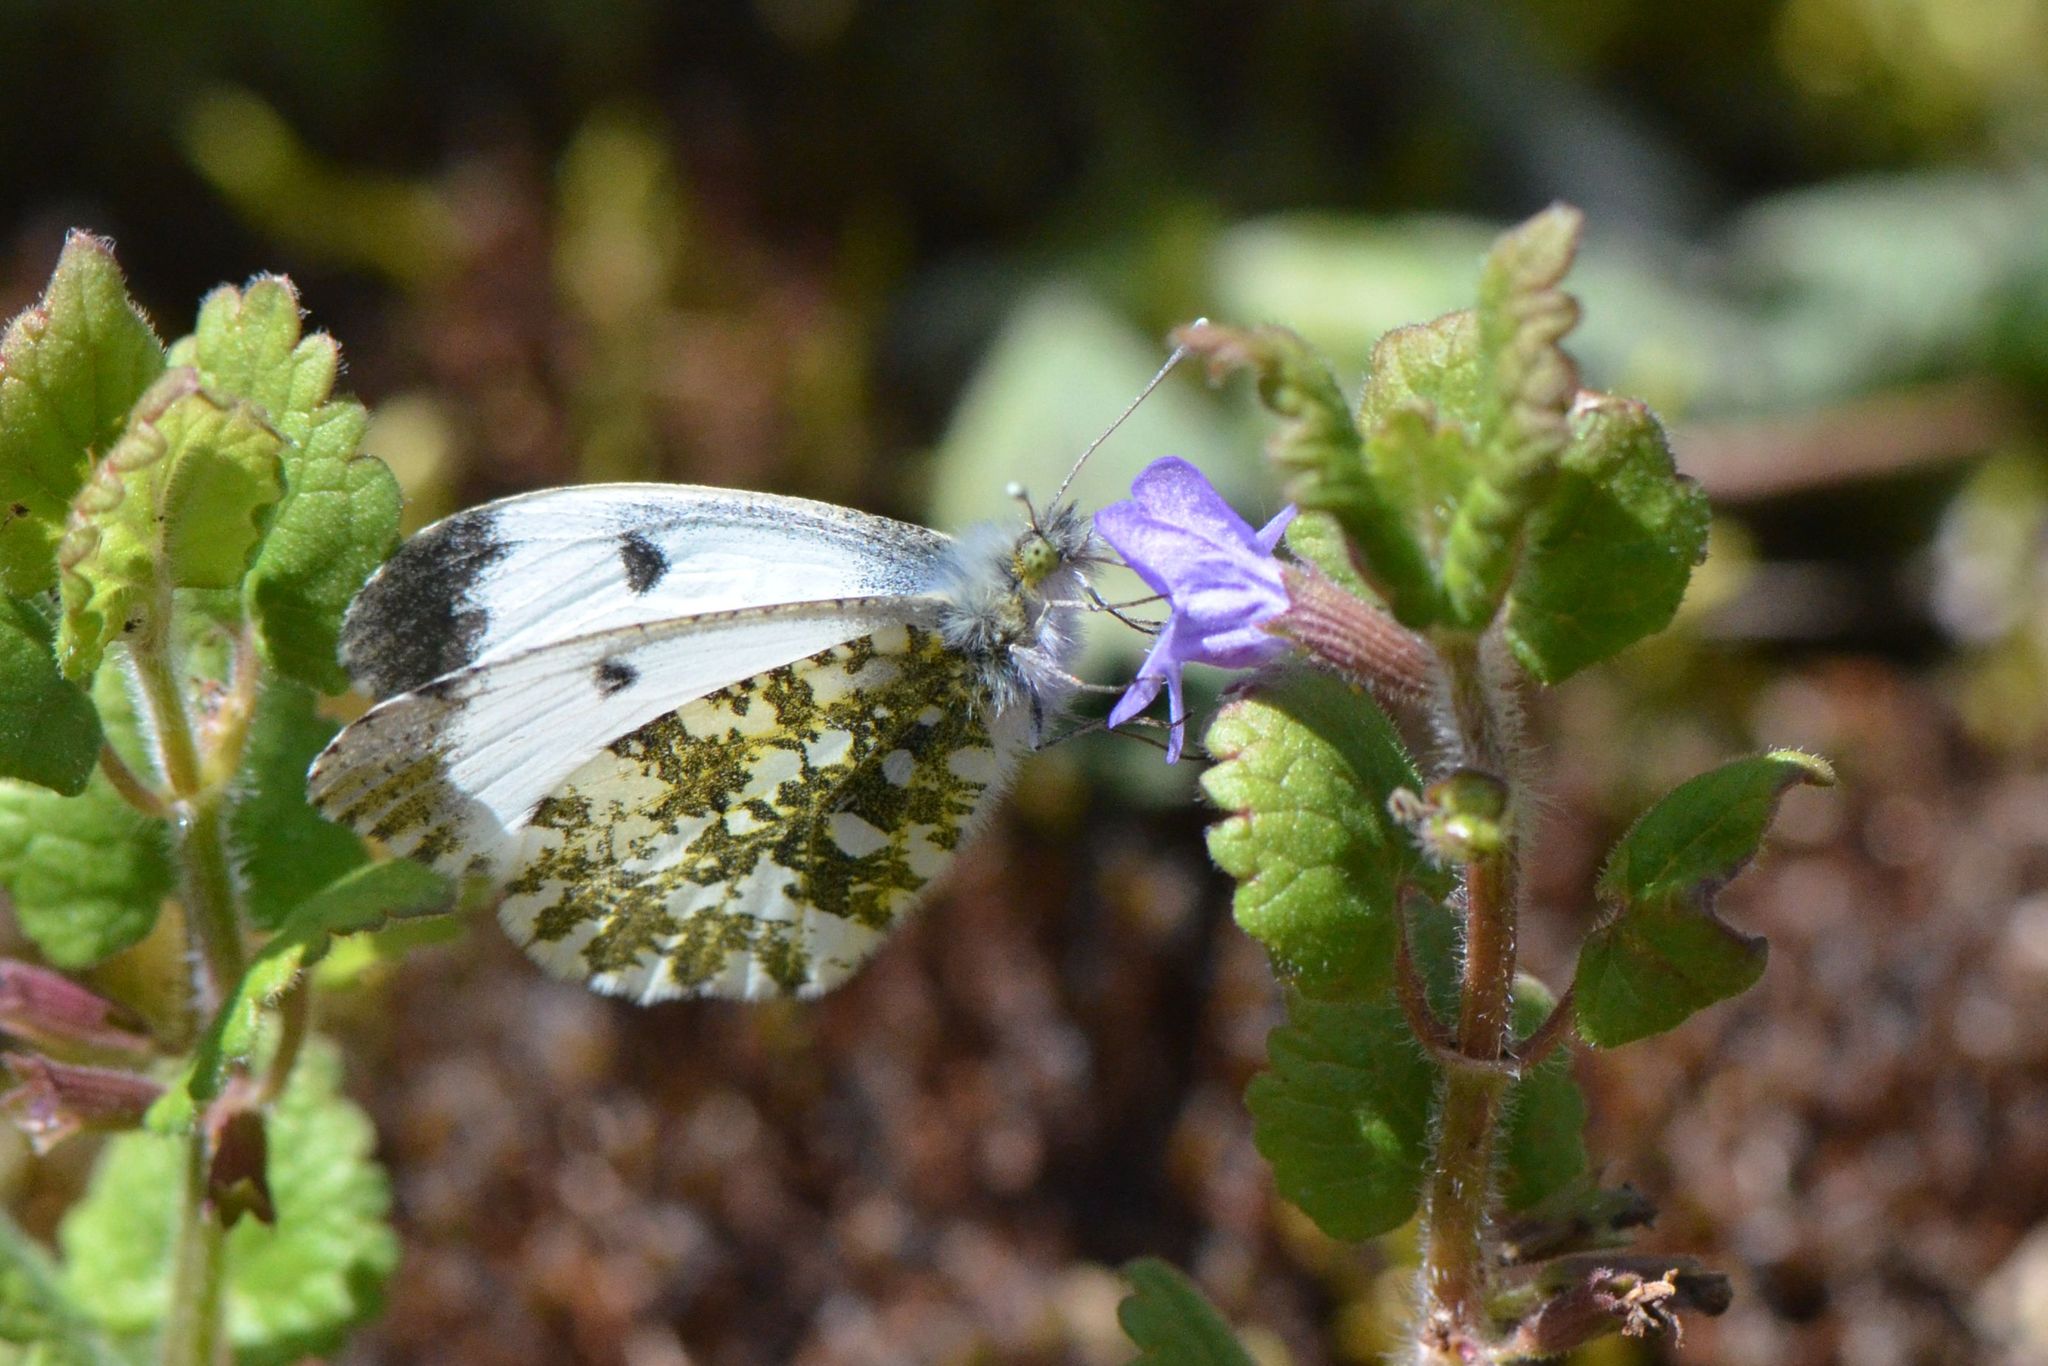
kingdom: Animalia
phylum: Arthropoda
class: Insecta
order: Lepidoptera
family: Pieridae
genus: Anthocharis
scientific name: Anthocharis cardamines
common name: Orange-tip
